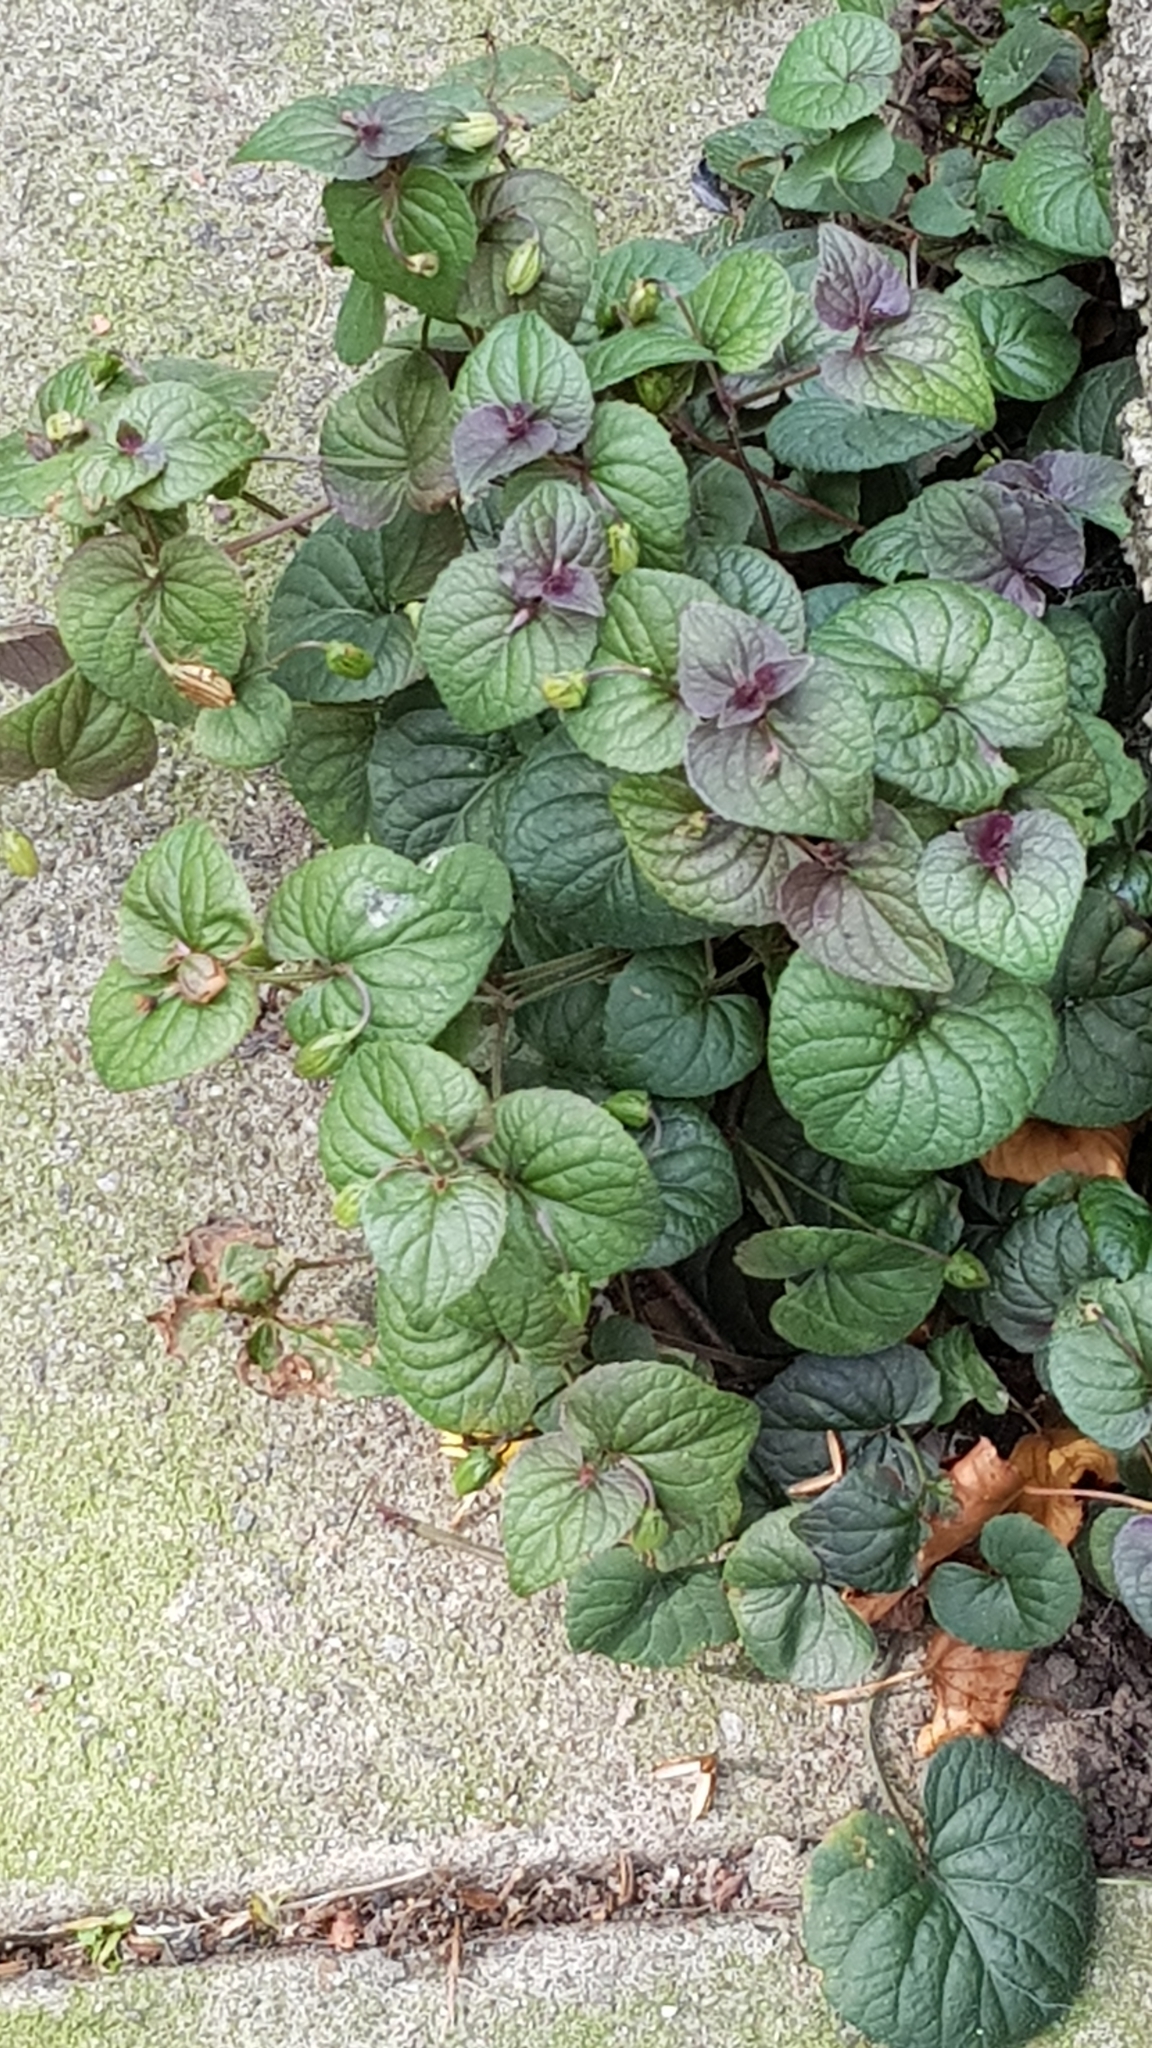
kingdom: Plantae
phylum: Tracheophyta
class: Magnoliopsida
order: Malpighiales
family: Violaceae
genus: Viola
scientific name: Viola riviniana
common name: Common dog-violet
